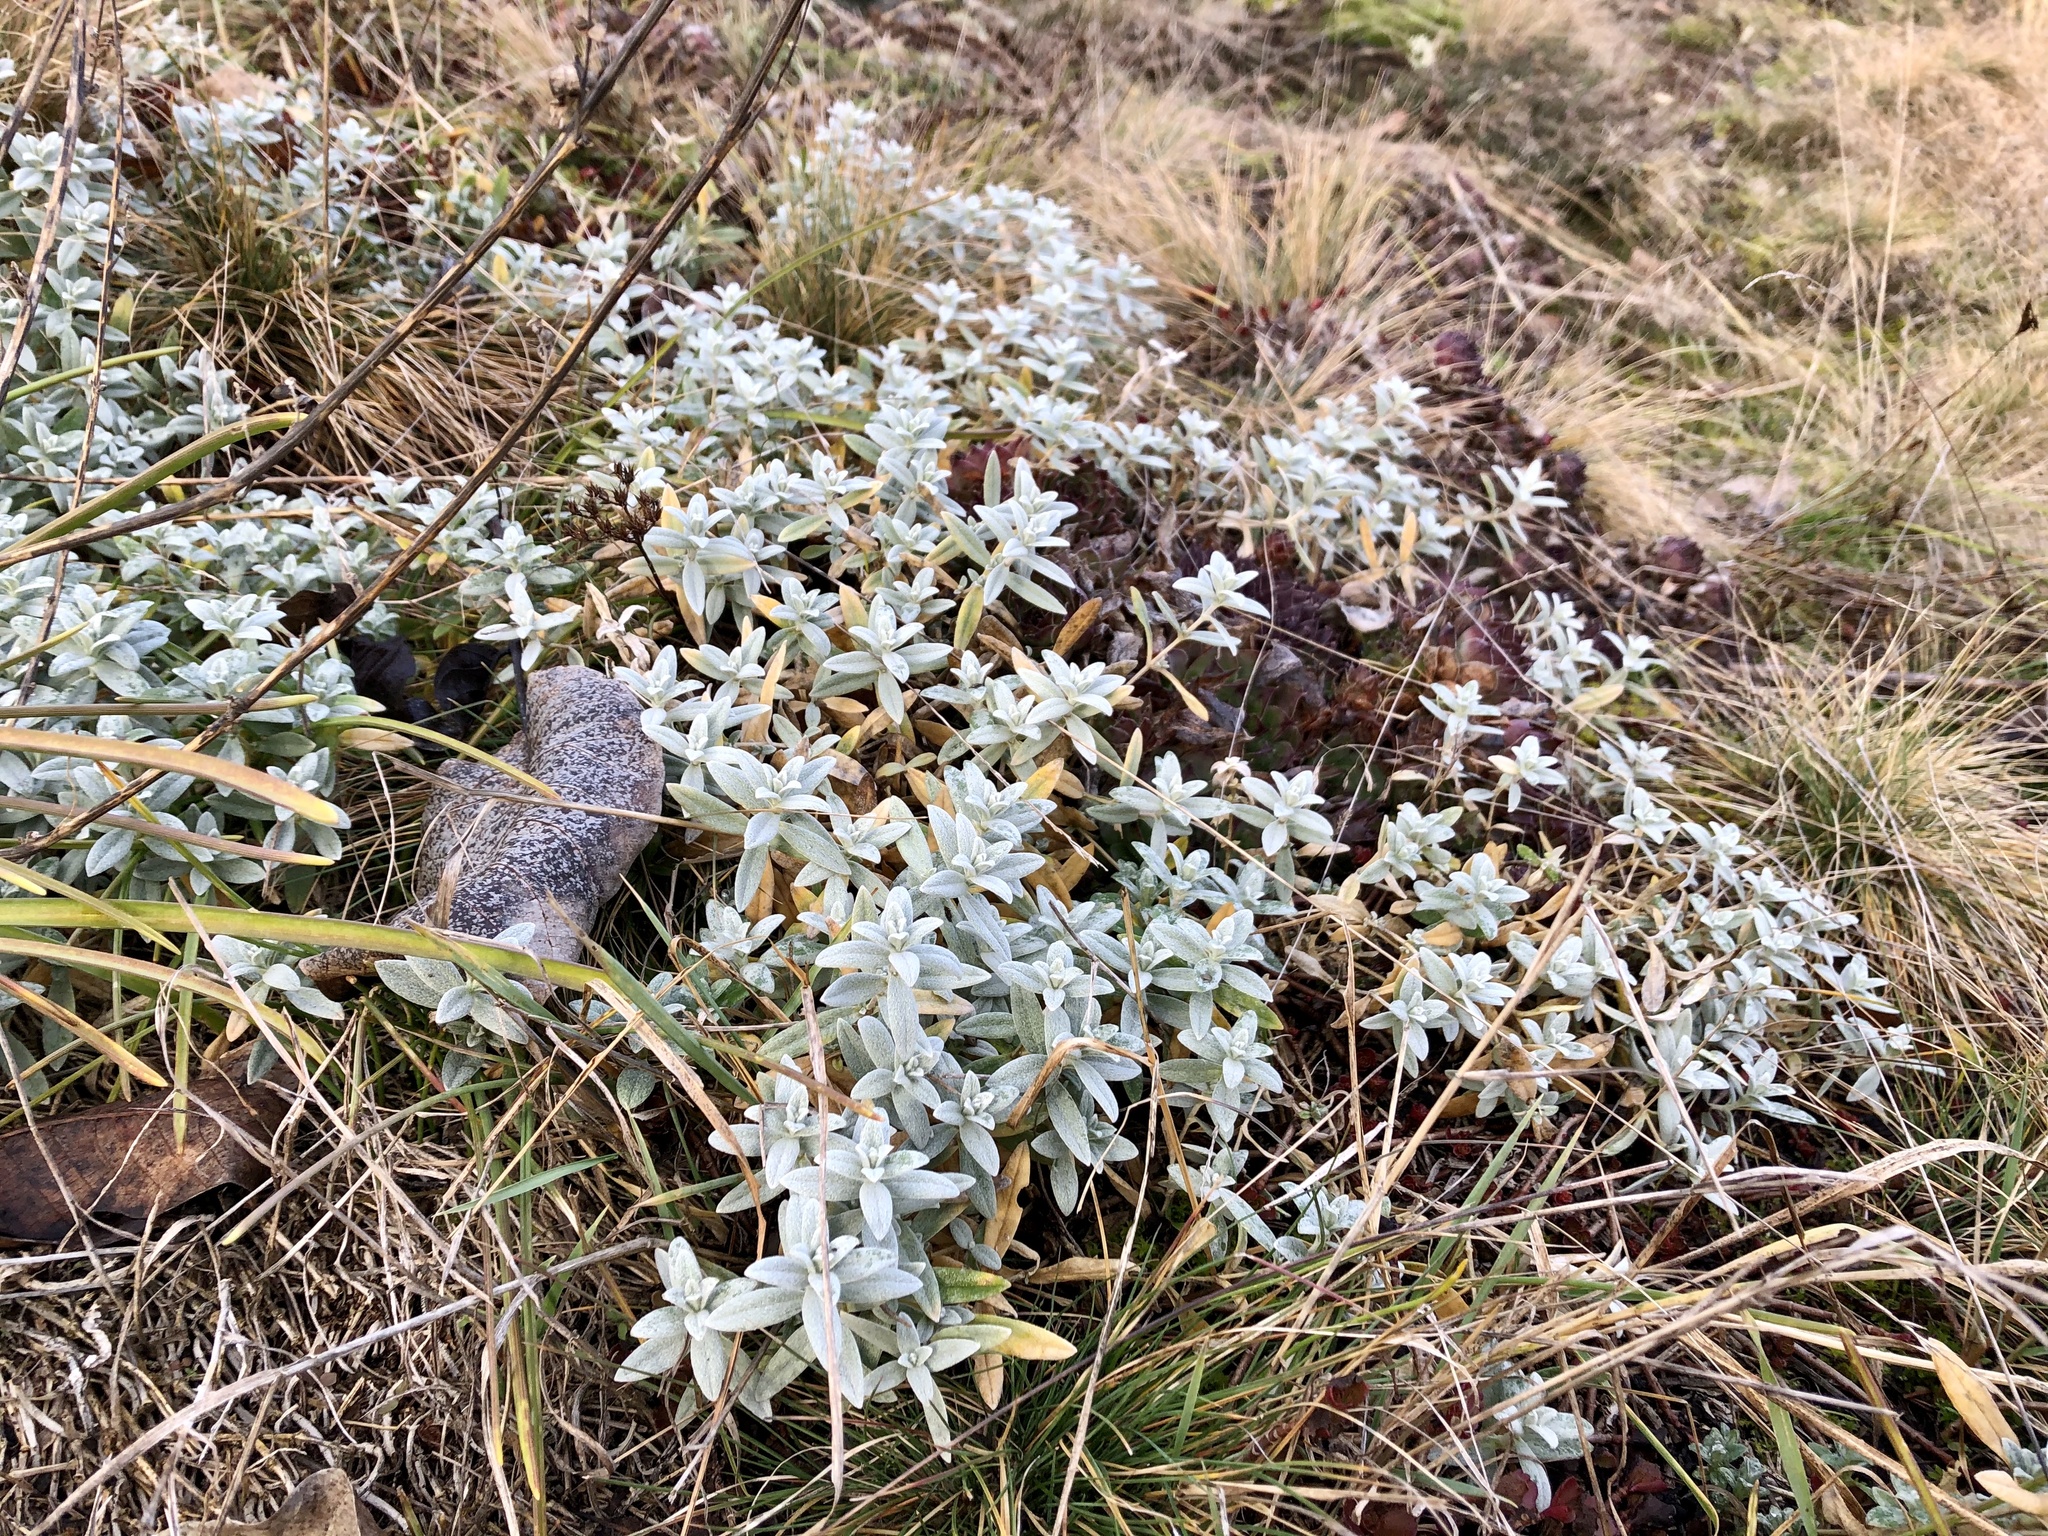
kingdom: Plantae
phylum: Tracheophyta
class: Magnoliopsida
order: Caryophyllales
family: Caryophyllaceae
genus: Cerastium
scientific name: Cerastium tomentosum
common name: Snow-in-summer
